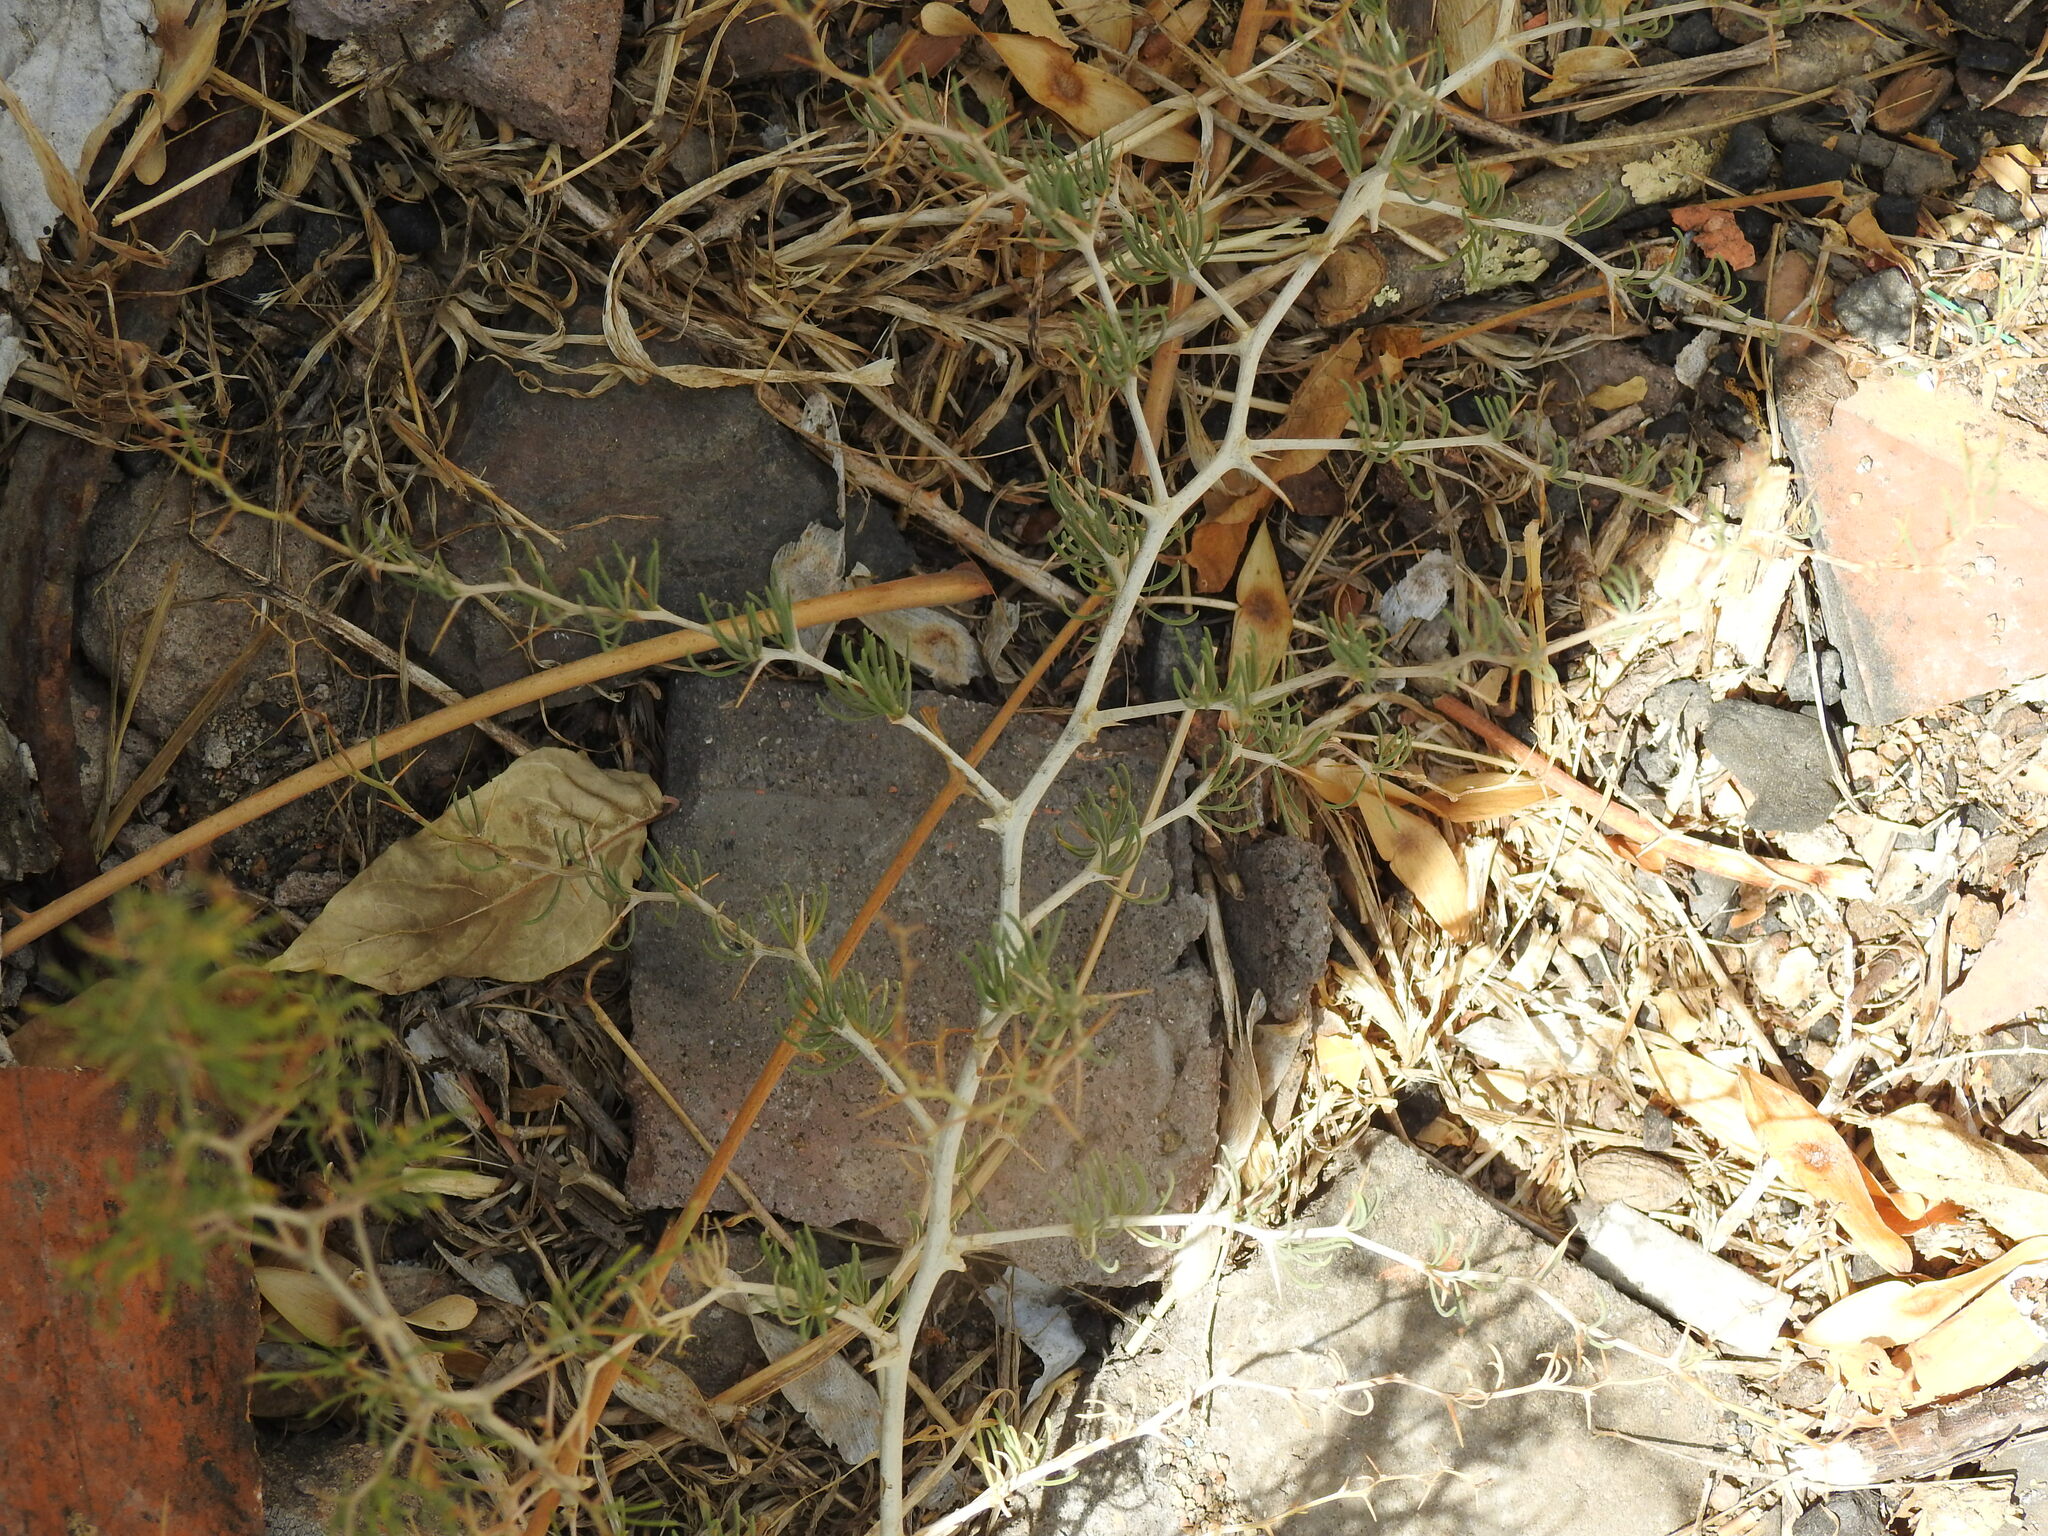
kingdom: Plantae
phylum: Tracheophyta
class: Liliopsida
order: Asparagales
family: Asparagaceae
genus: Asparagus
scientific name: Asparagus albus
